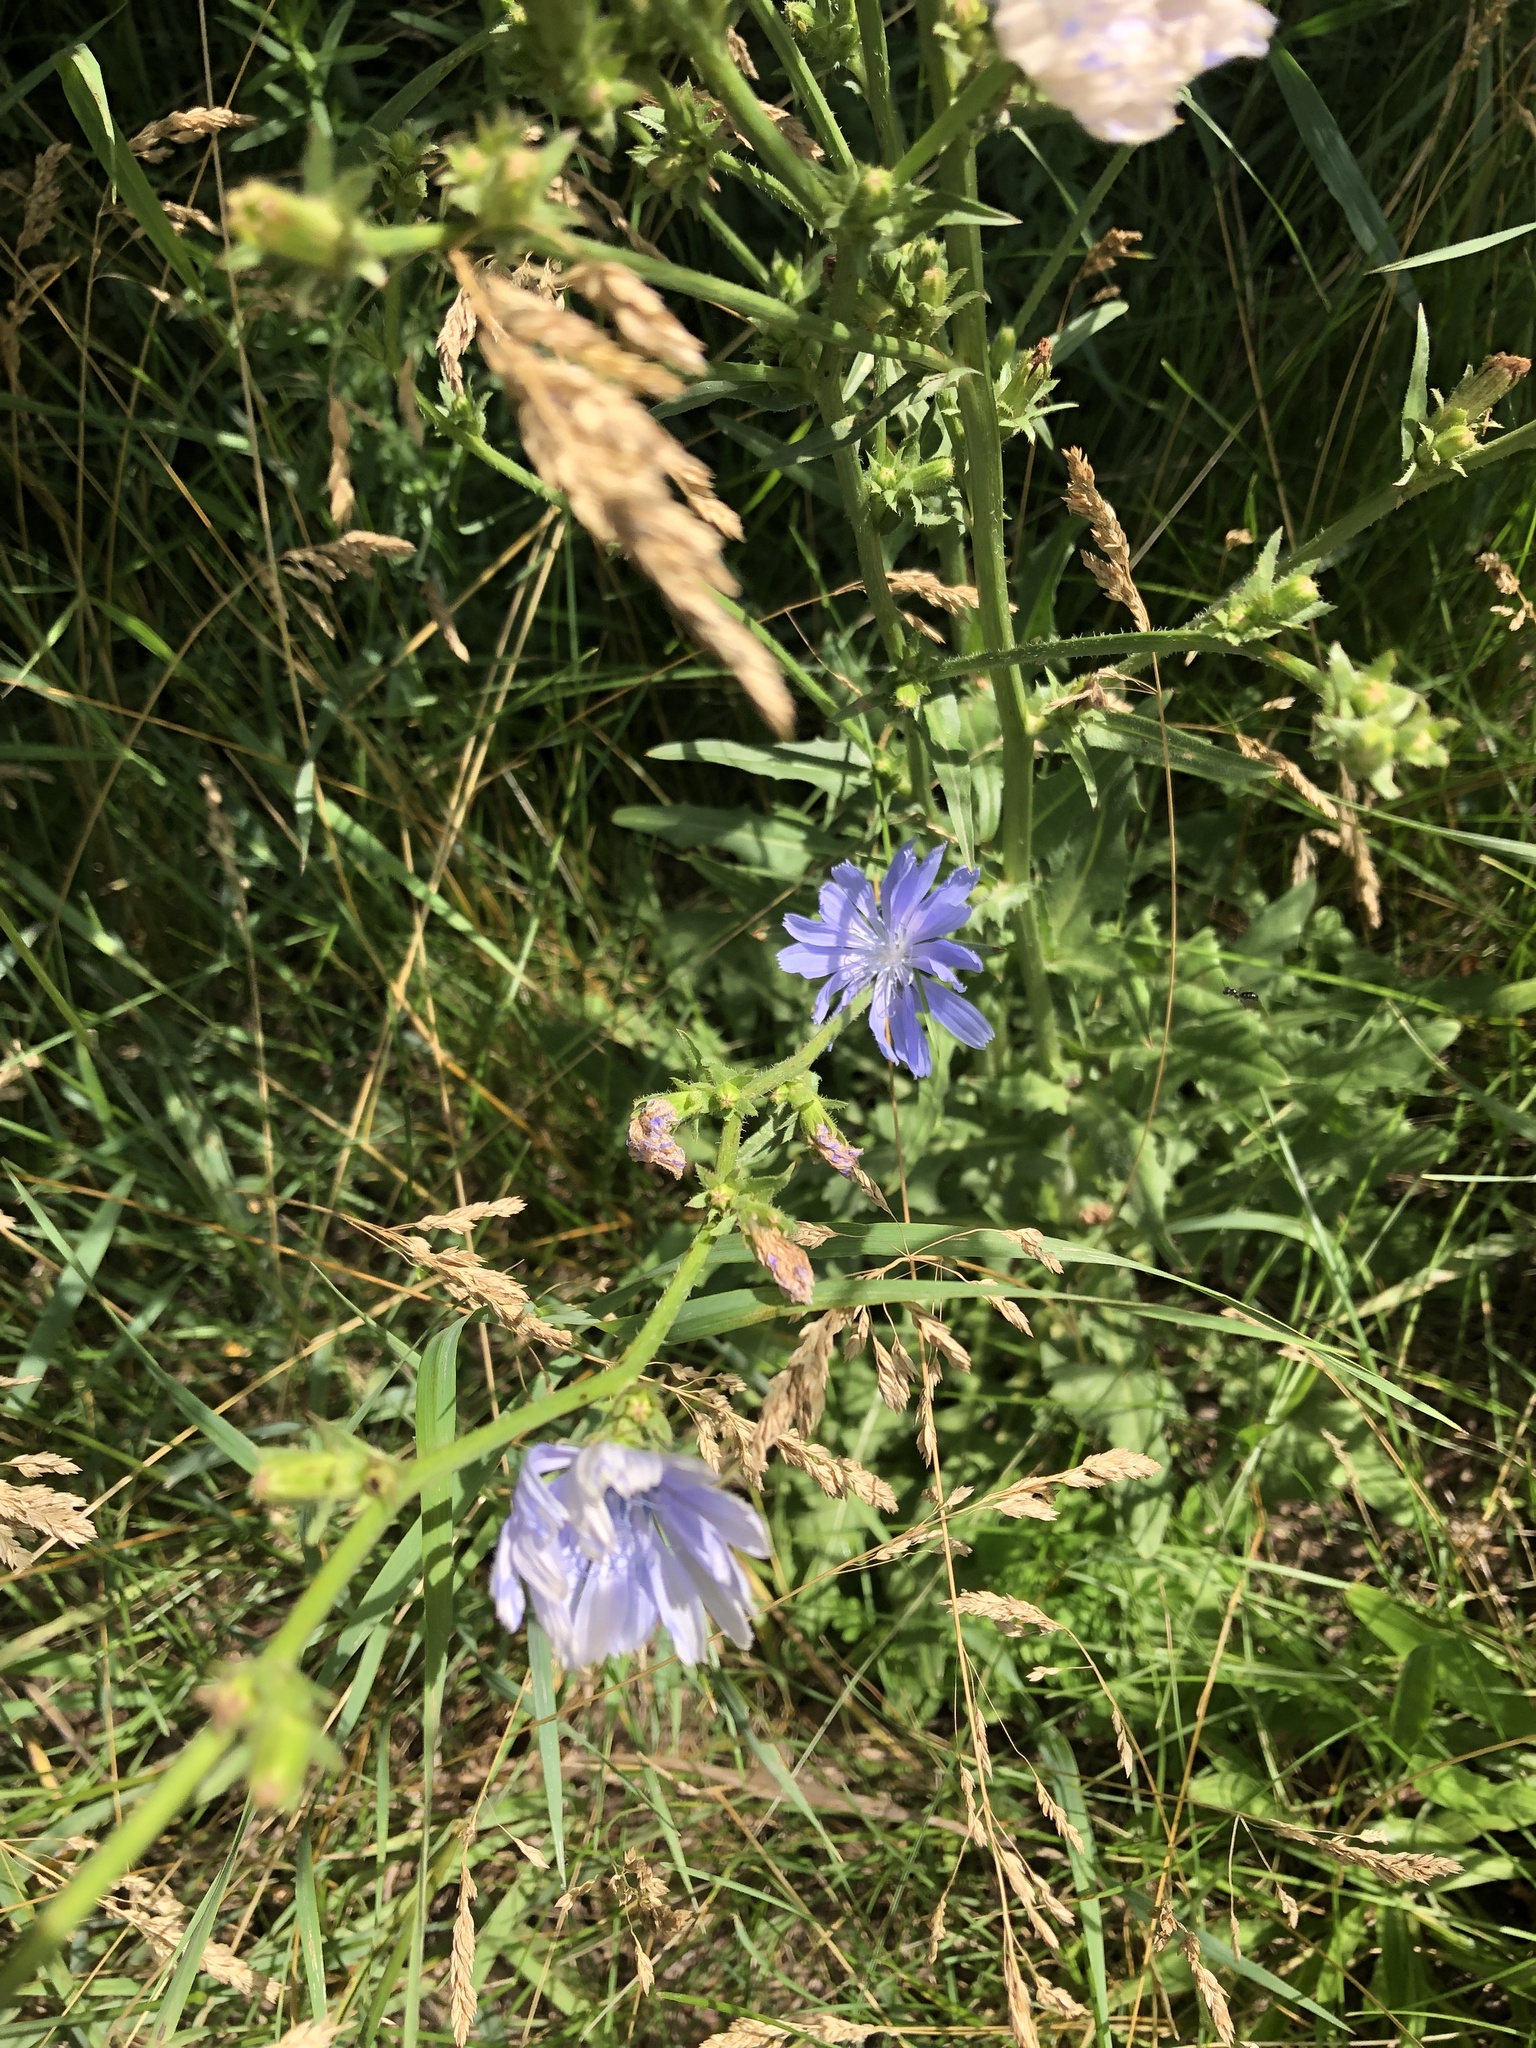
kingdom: Plantae
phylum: Tracheophyta
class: Magnoliopsida
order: Asterales
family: Asteraceae
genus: Cichorium
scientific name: Cichorium intybus
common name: Chicory
